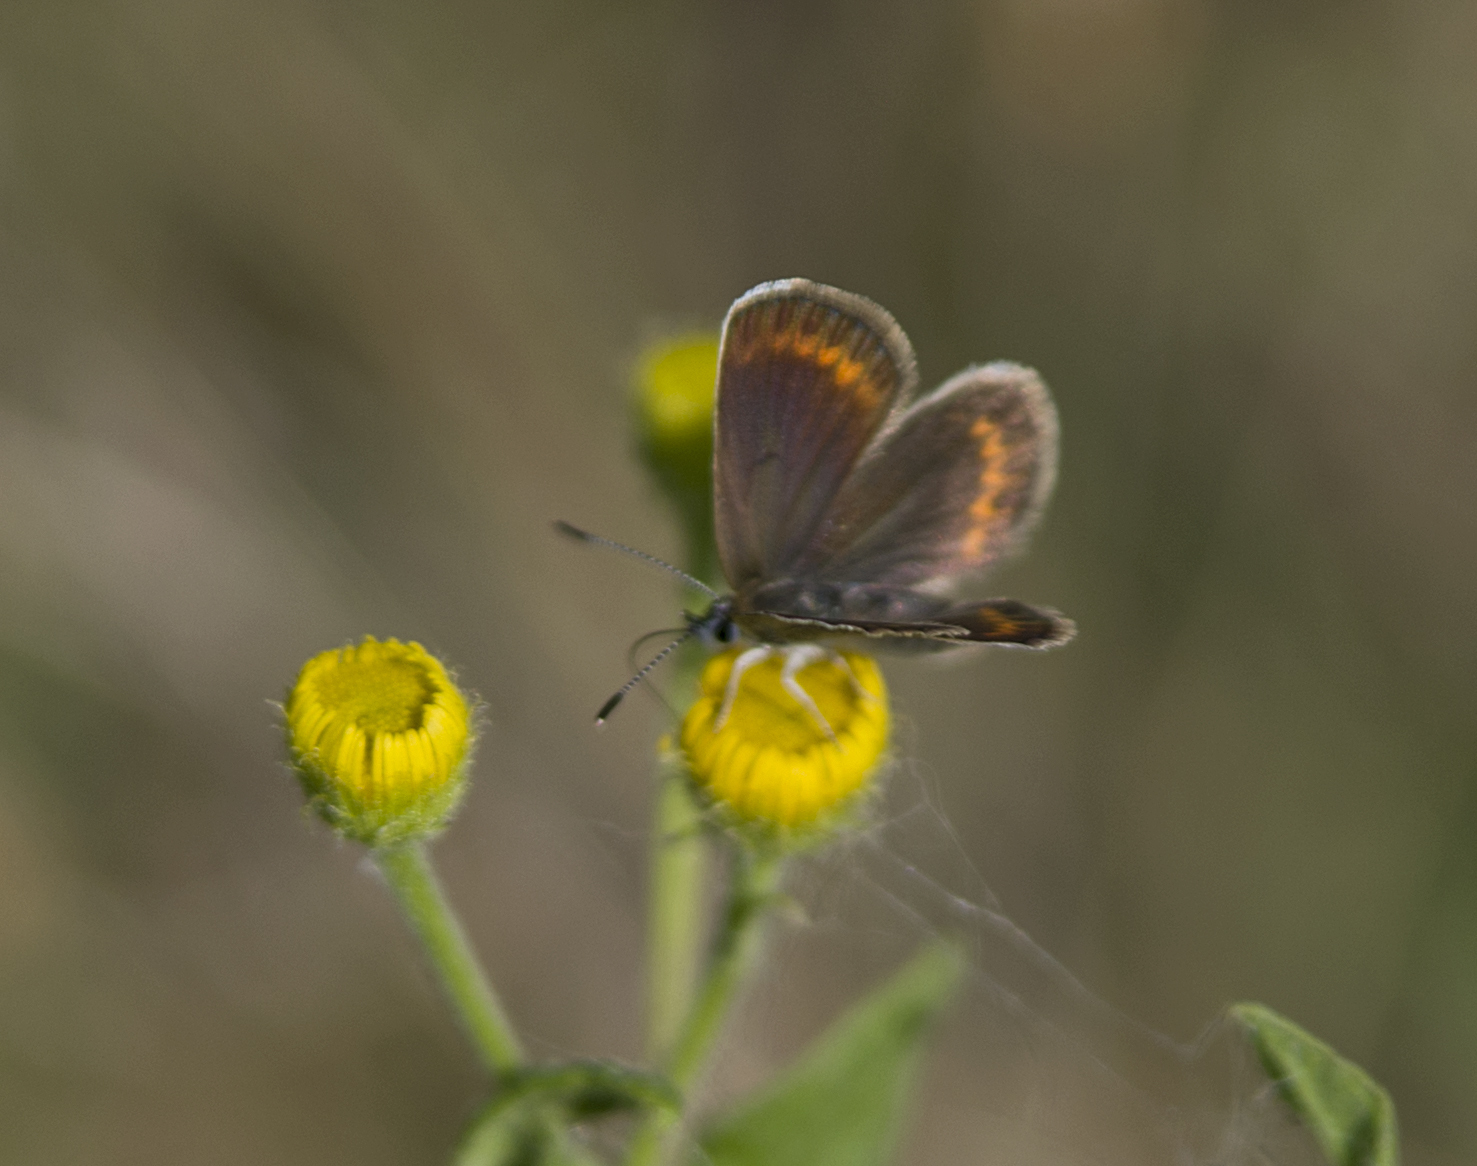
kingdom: Animalia
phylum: Arthropoda
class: Insecta
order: Lepidoptera
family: Lycaenidae
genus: Plebejus
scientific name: Plebejus argus
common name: Silver-studded blue
